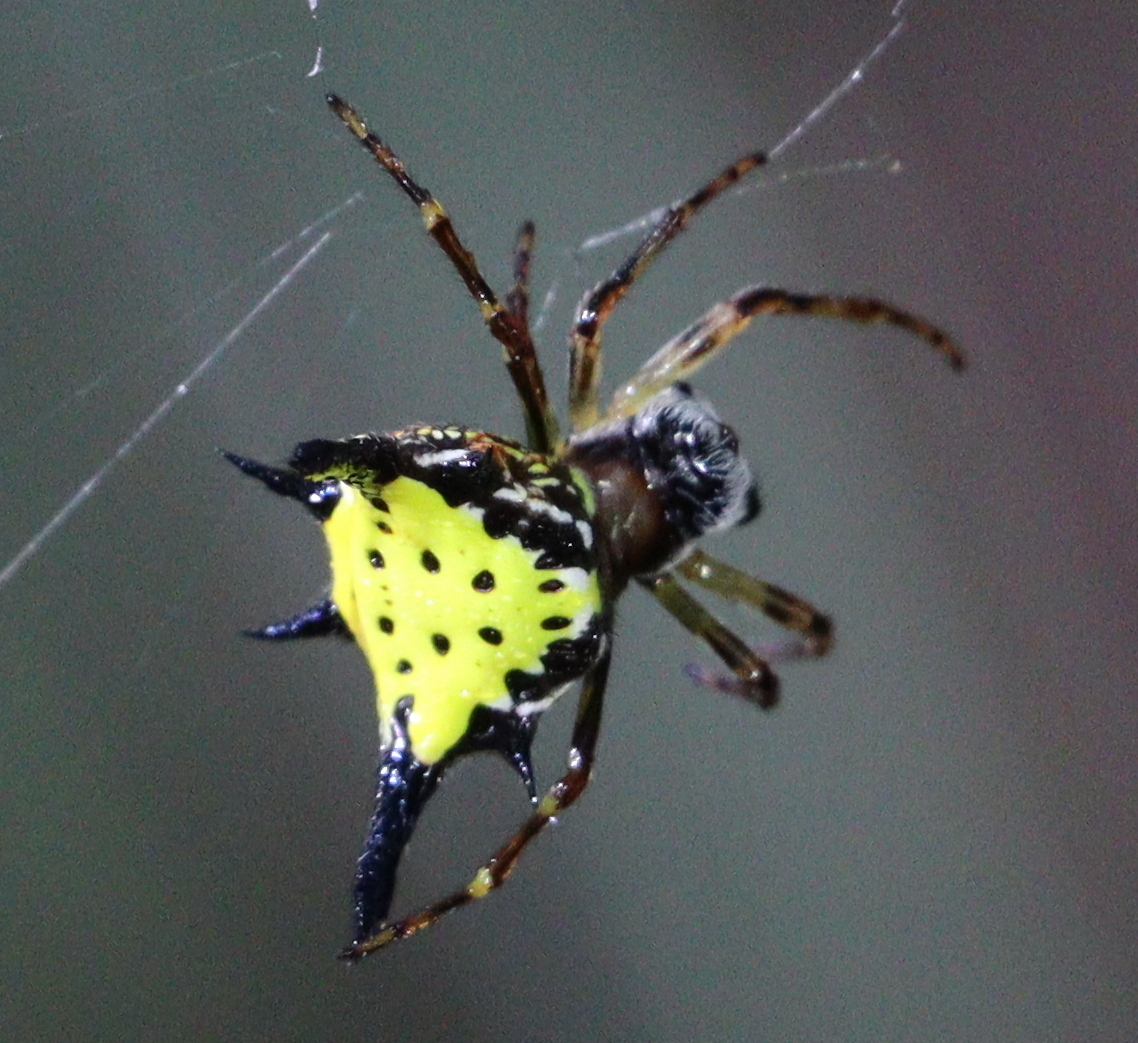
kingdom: Animalia
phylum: Arthropoda
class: Arachnida
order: Araneae
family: Araneidae
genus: Macracantha
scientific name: Macracantha hasselti
